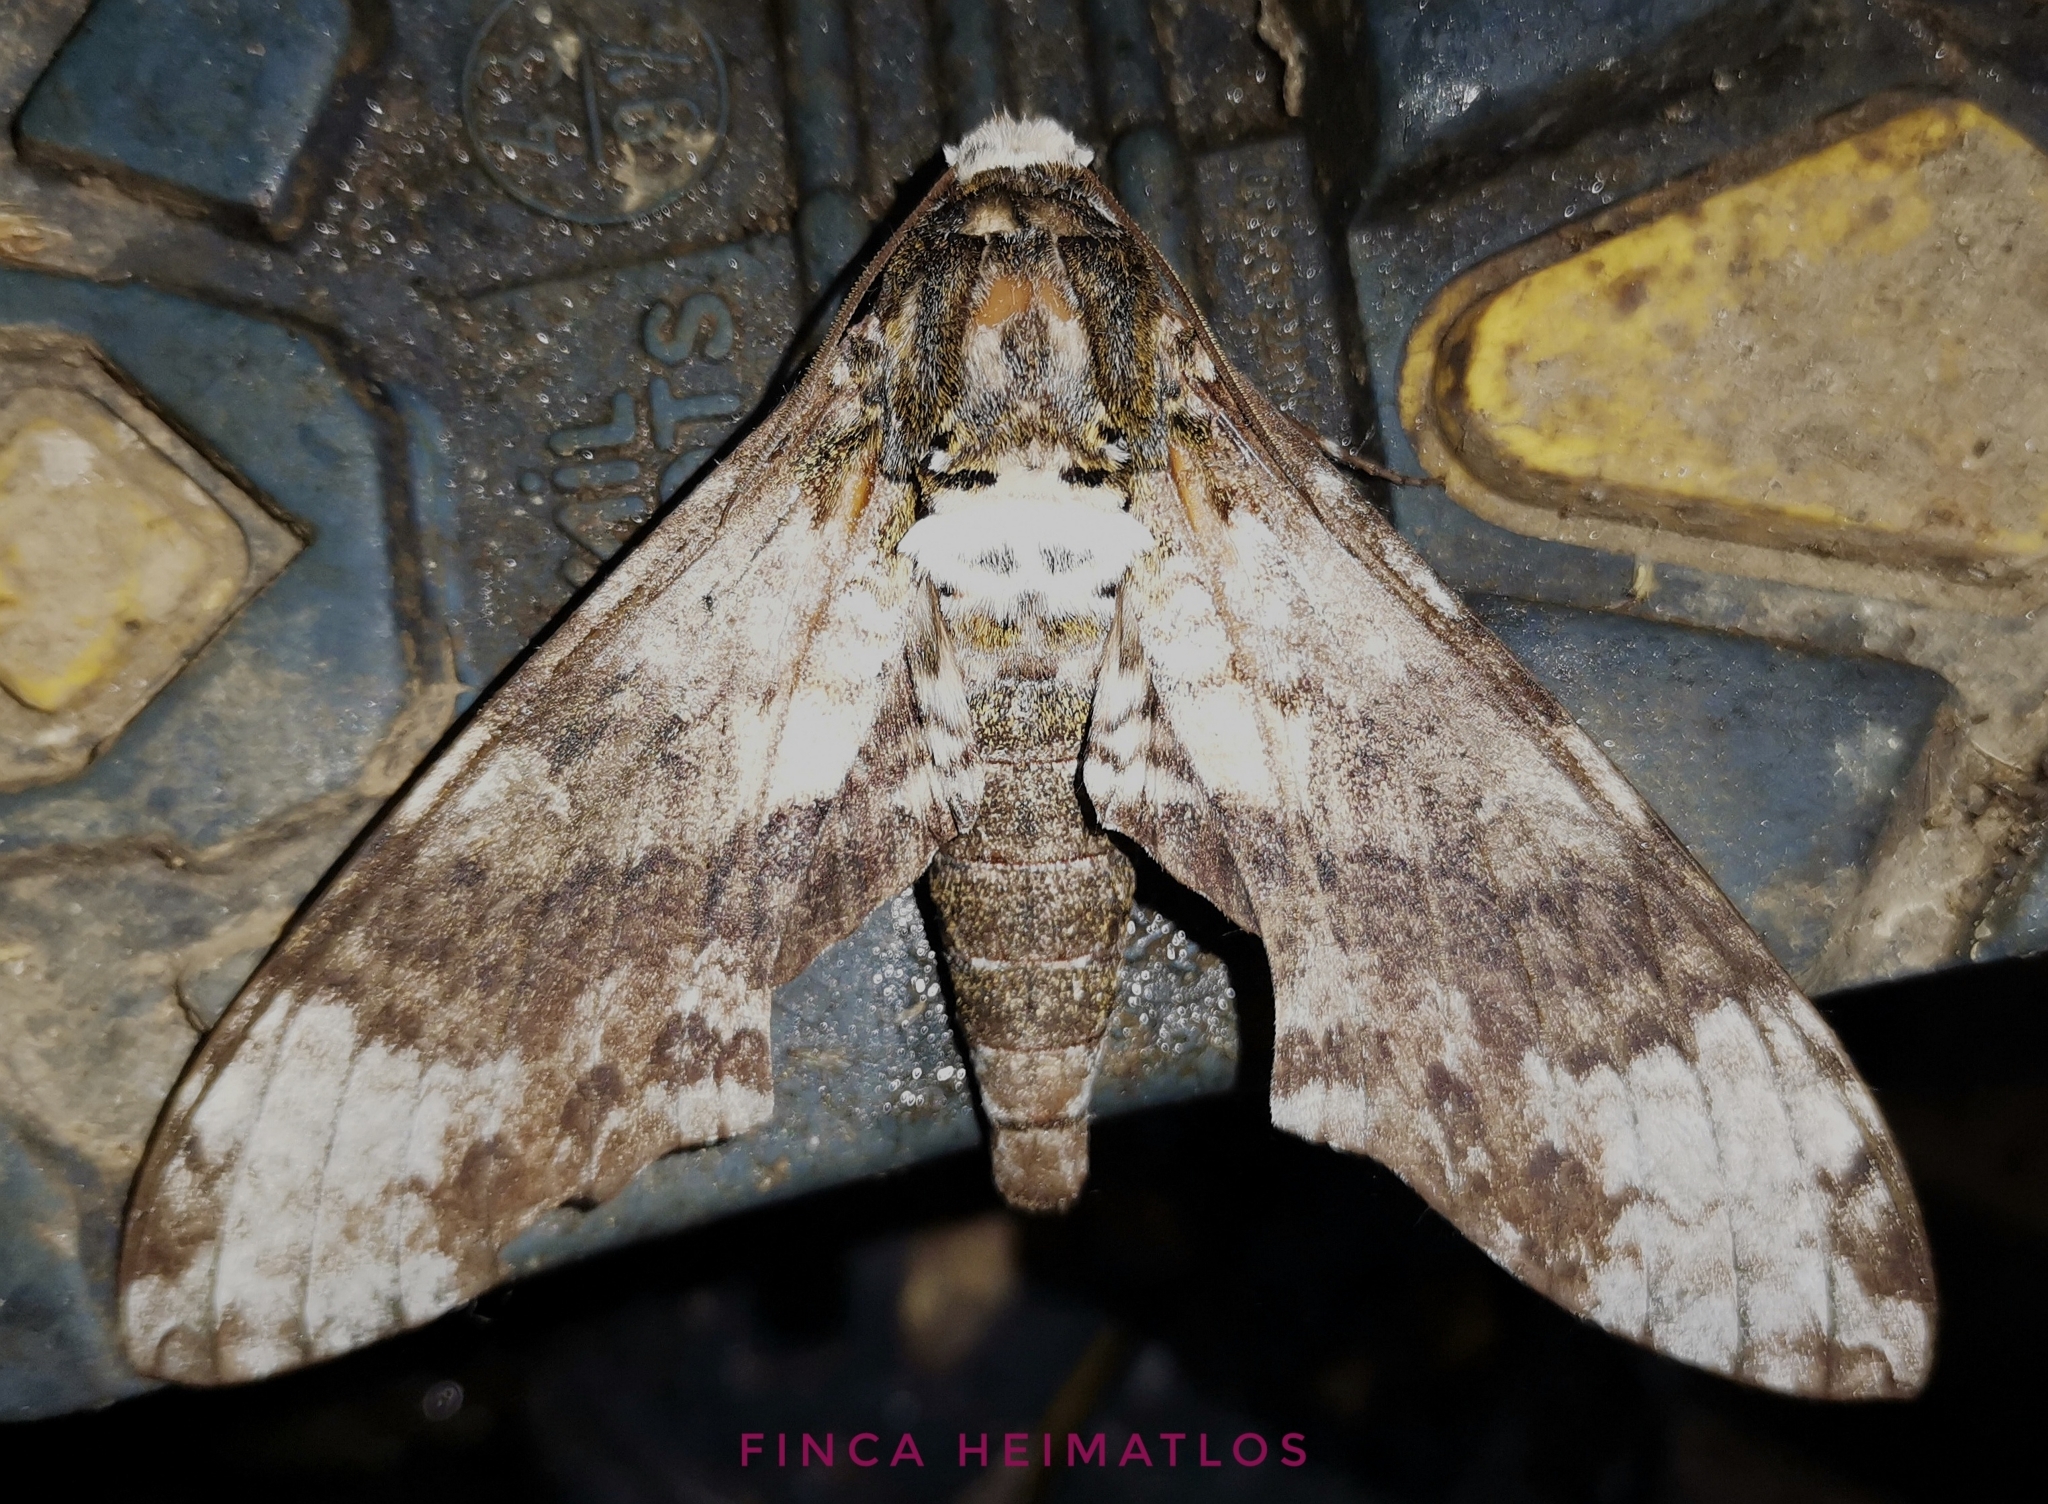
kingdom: Animalia
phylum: Arthropoda
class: Insecta
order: Lepidoptera
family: Sphingidae
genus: Manduca
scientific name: Manduca albiplaga
